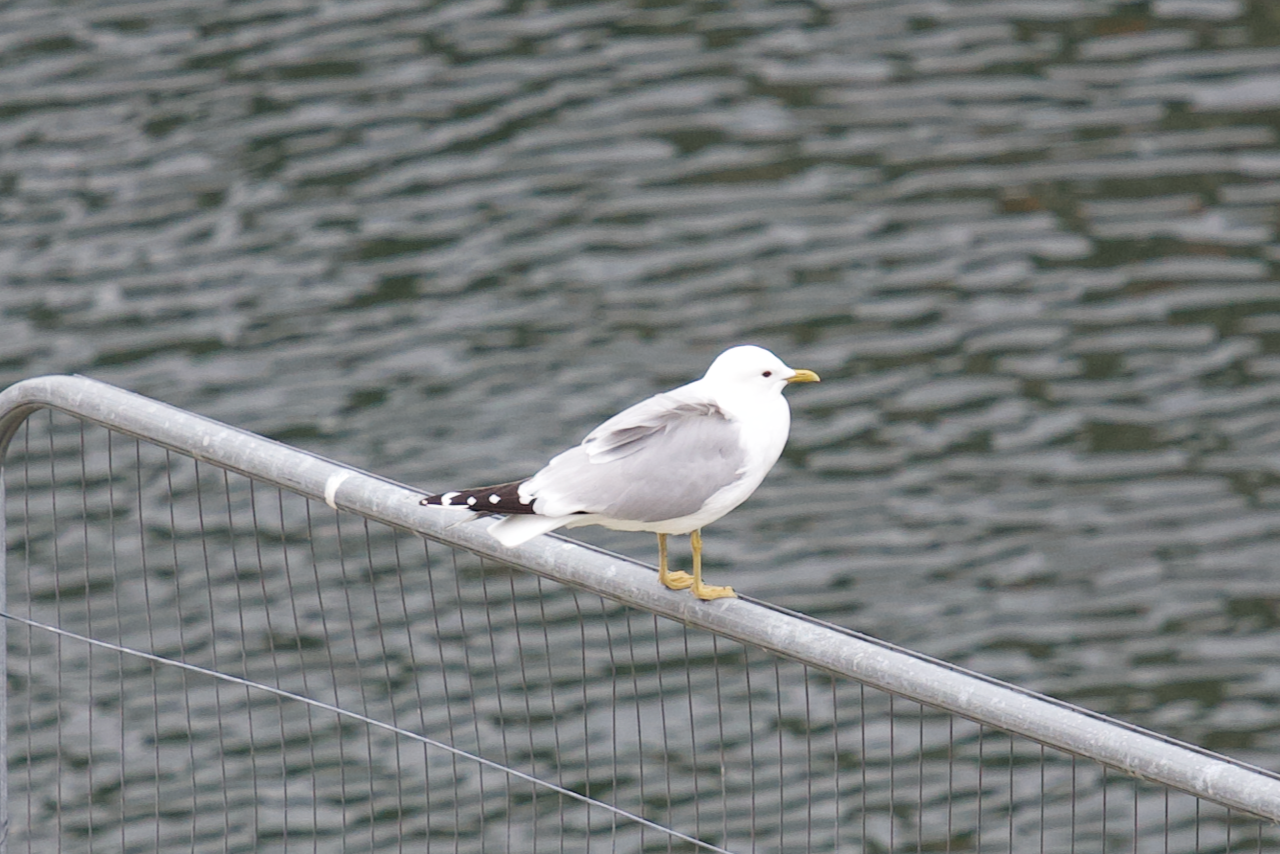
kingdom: Animalia
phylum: Chordata
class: Aves
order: Charadriiformes
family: Laridae
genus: Larus
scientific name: Larus canus
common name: Mew gull
